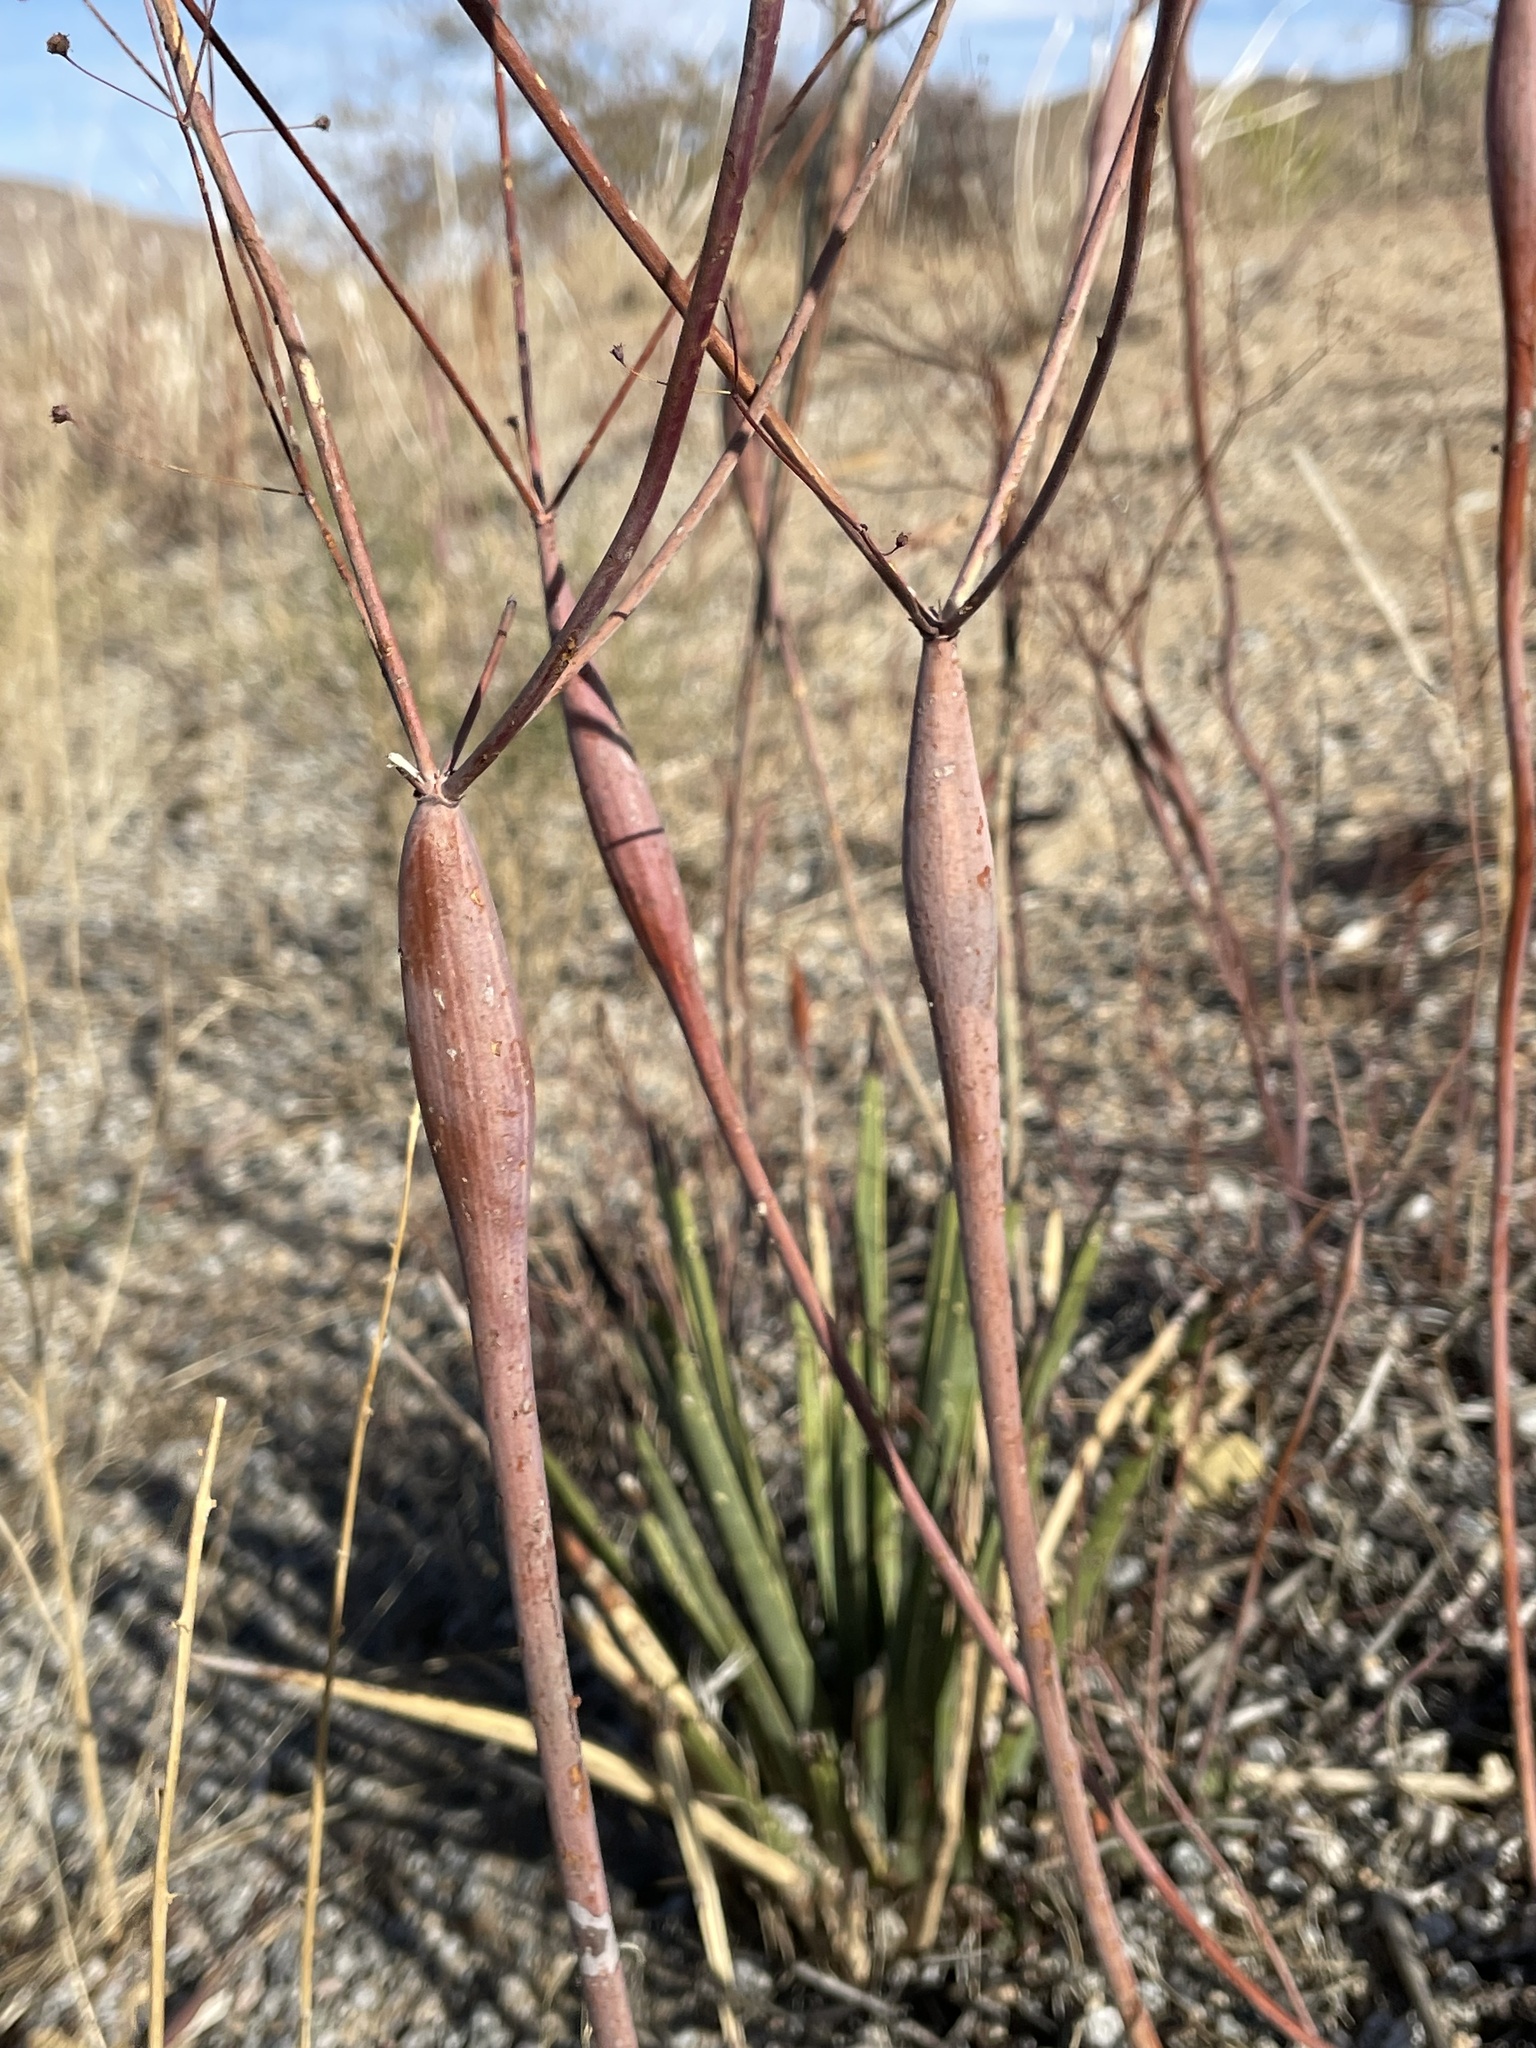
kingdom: Plantae
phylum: Tracheophyta
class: Magnoliopsida
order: Caryophyllales
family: Polygonaceae
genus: Eriogonum
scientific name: Eriogonum inflatum
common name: Desert trumpet
